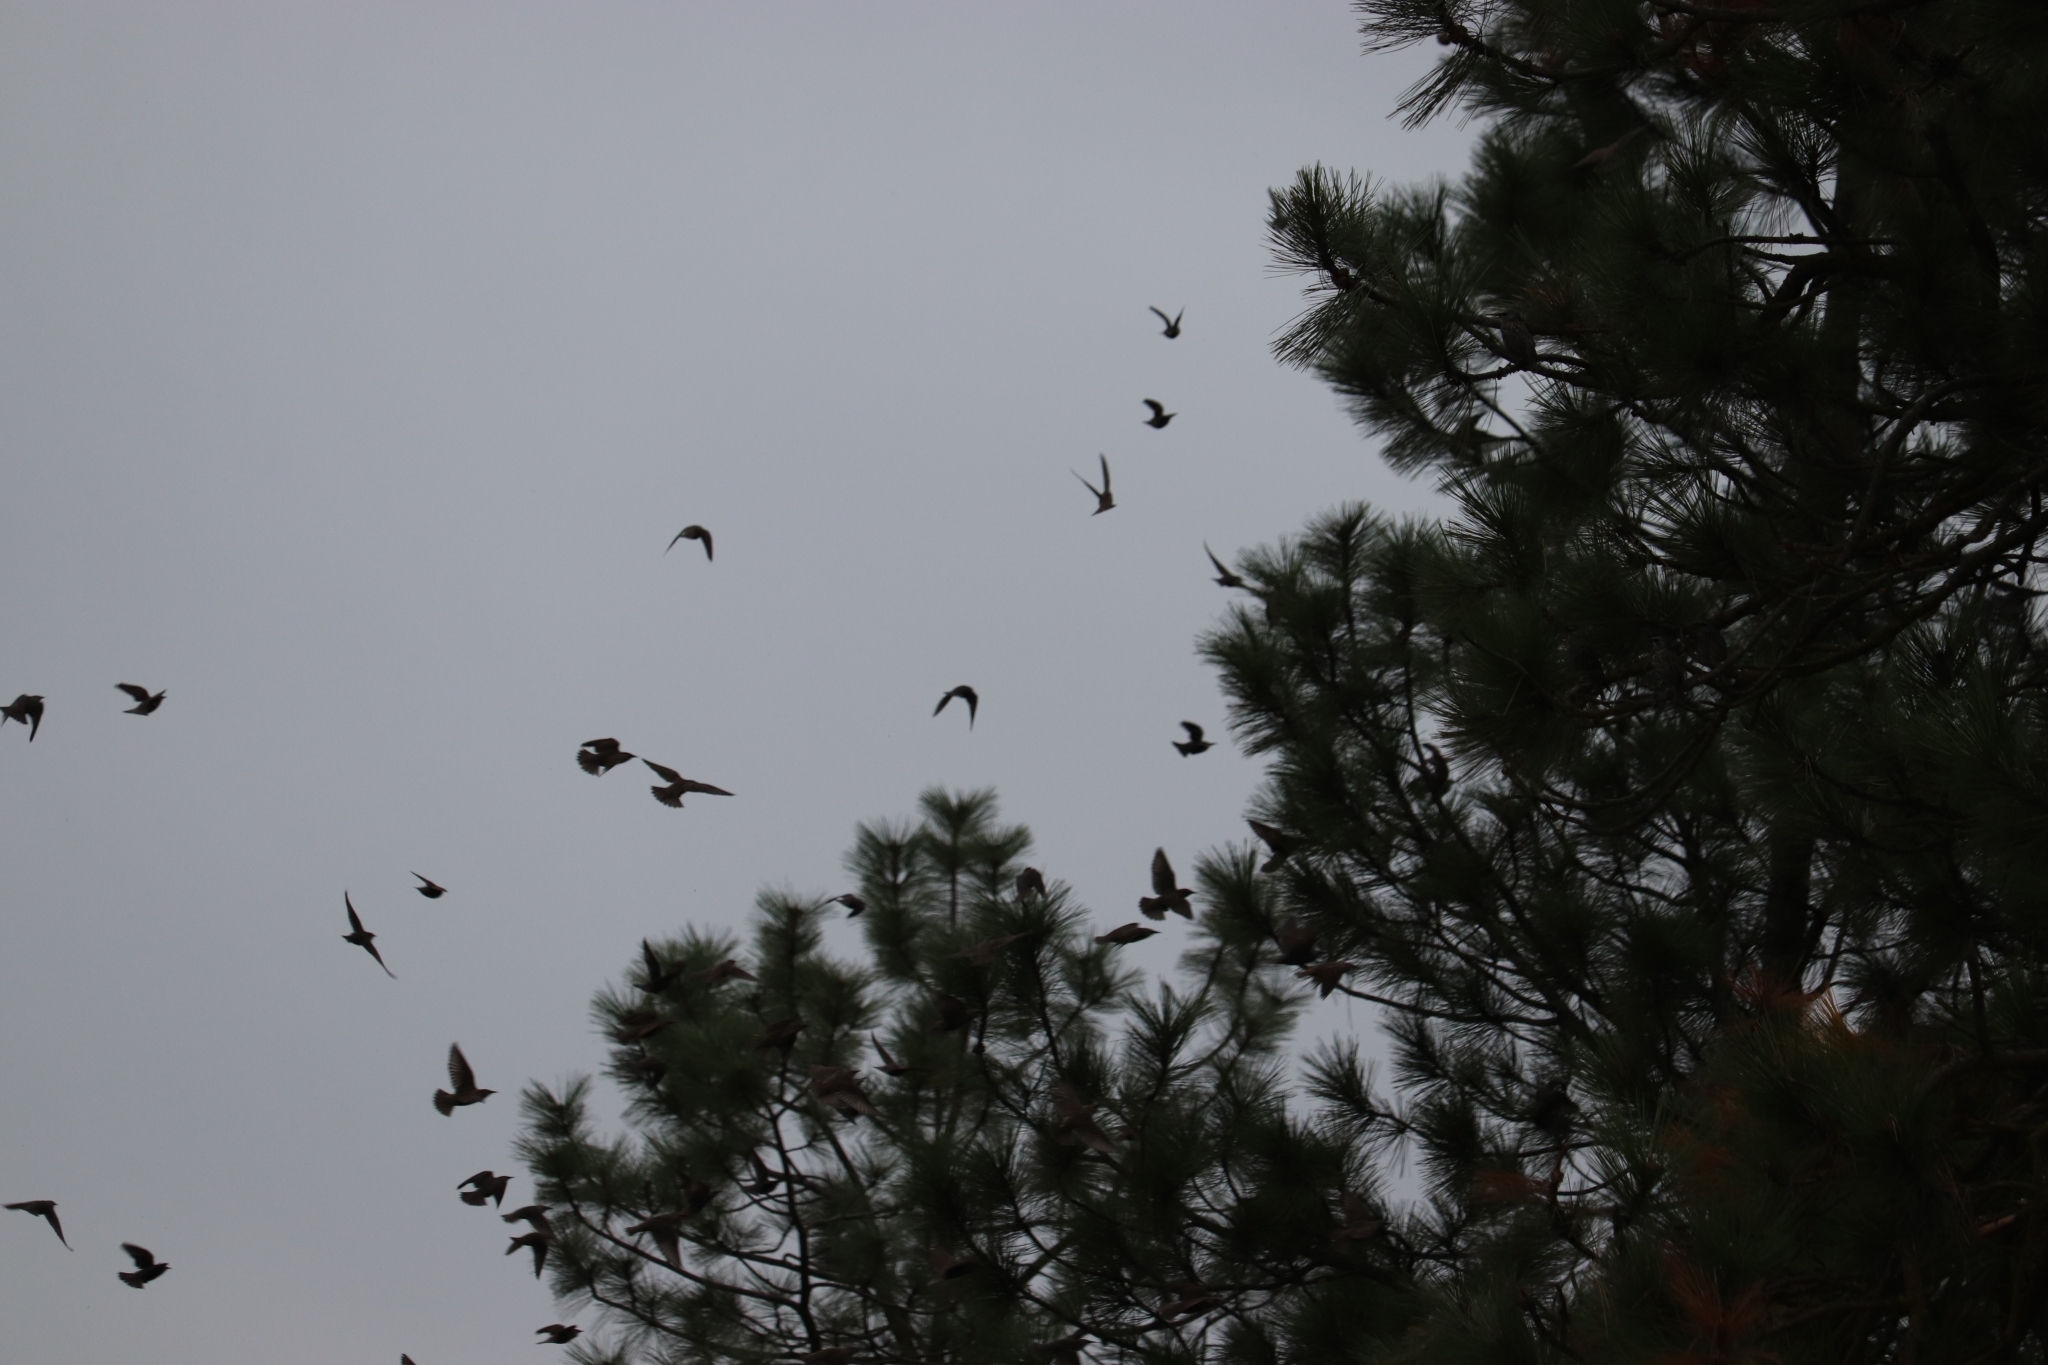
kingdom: Animalia
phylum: Chordata
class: Aves
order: Passeriformes
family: Sturnidae
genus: Sturnus
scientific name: Sturnus vulgaris
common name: Common starling
